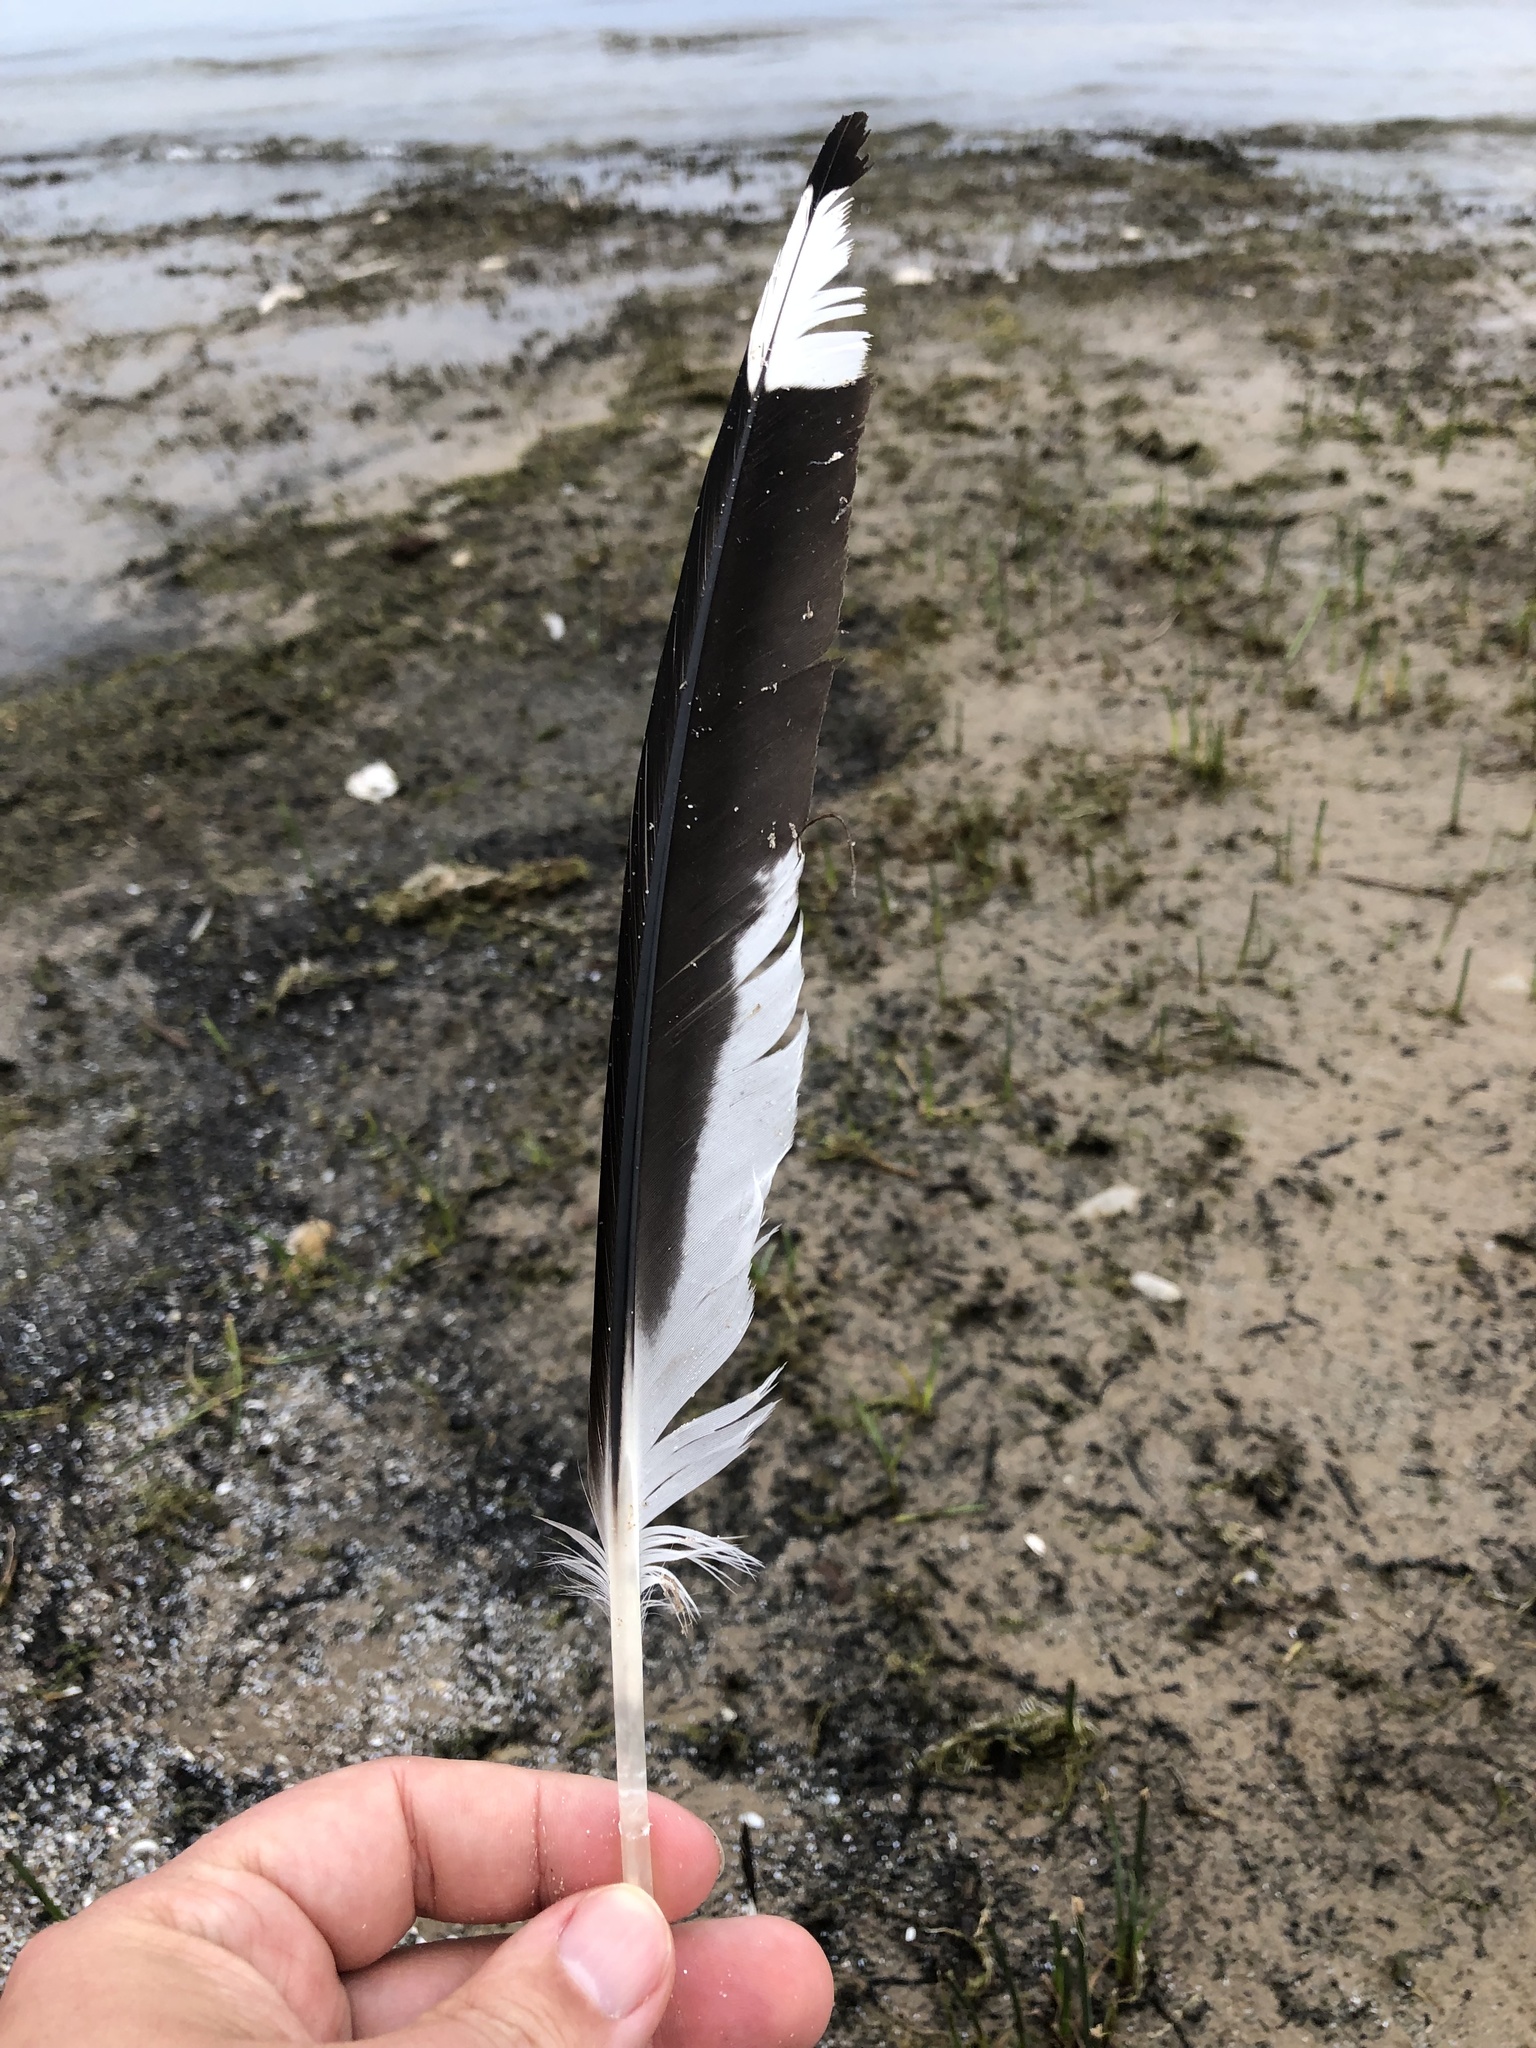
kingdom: Animalia
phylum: Chordata
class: Aves
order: Charadriiformes
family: Laridae
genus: Larus
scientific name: Larus delawarensis
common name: Ring-billed gull
